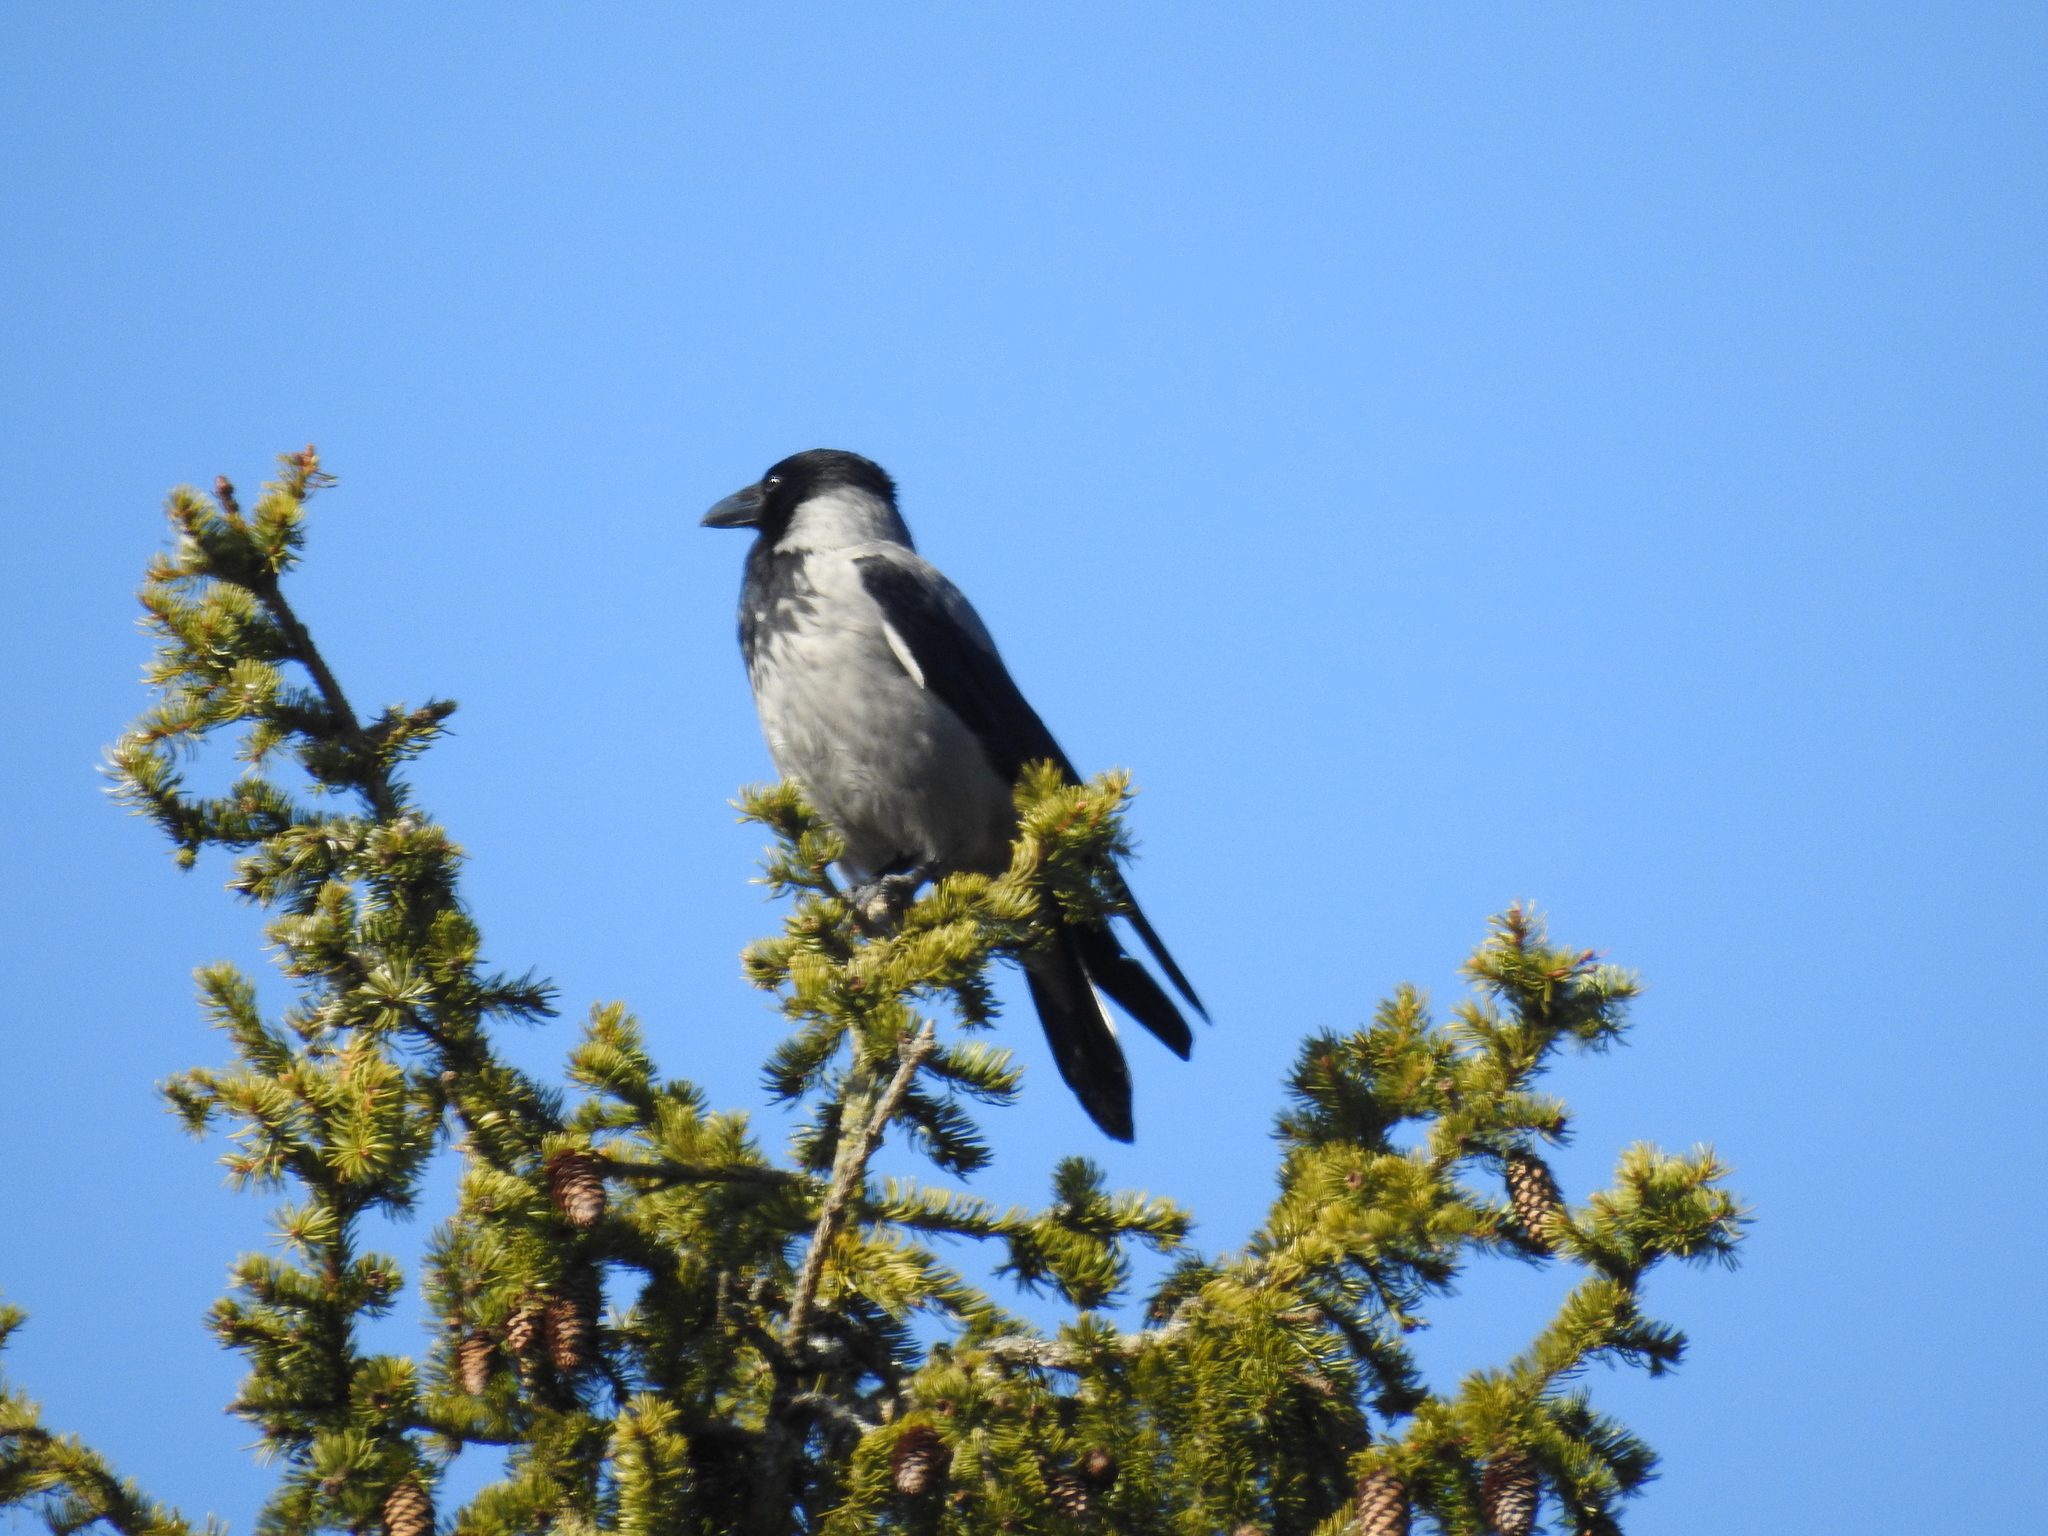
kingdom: Animalia
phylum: Chordata
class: Aves
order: Passeriformes
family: Corvidae
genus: Corvus
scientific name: Corvus cornix
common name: Hooded crow
